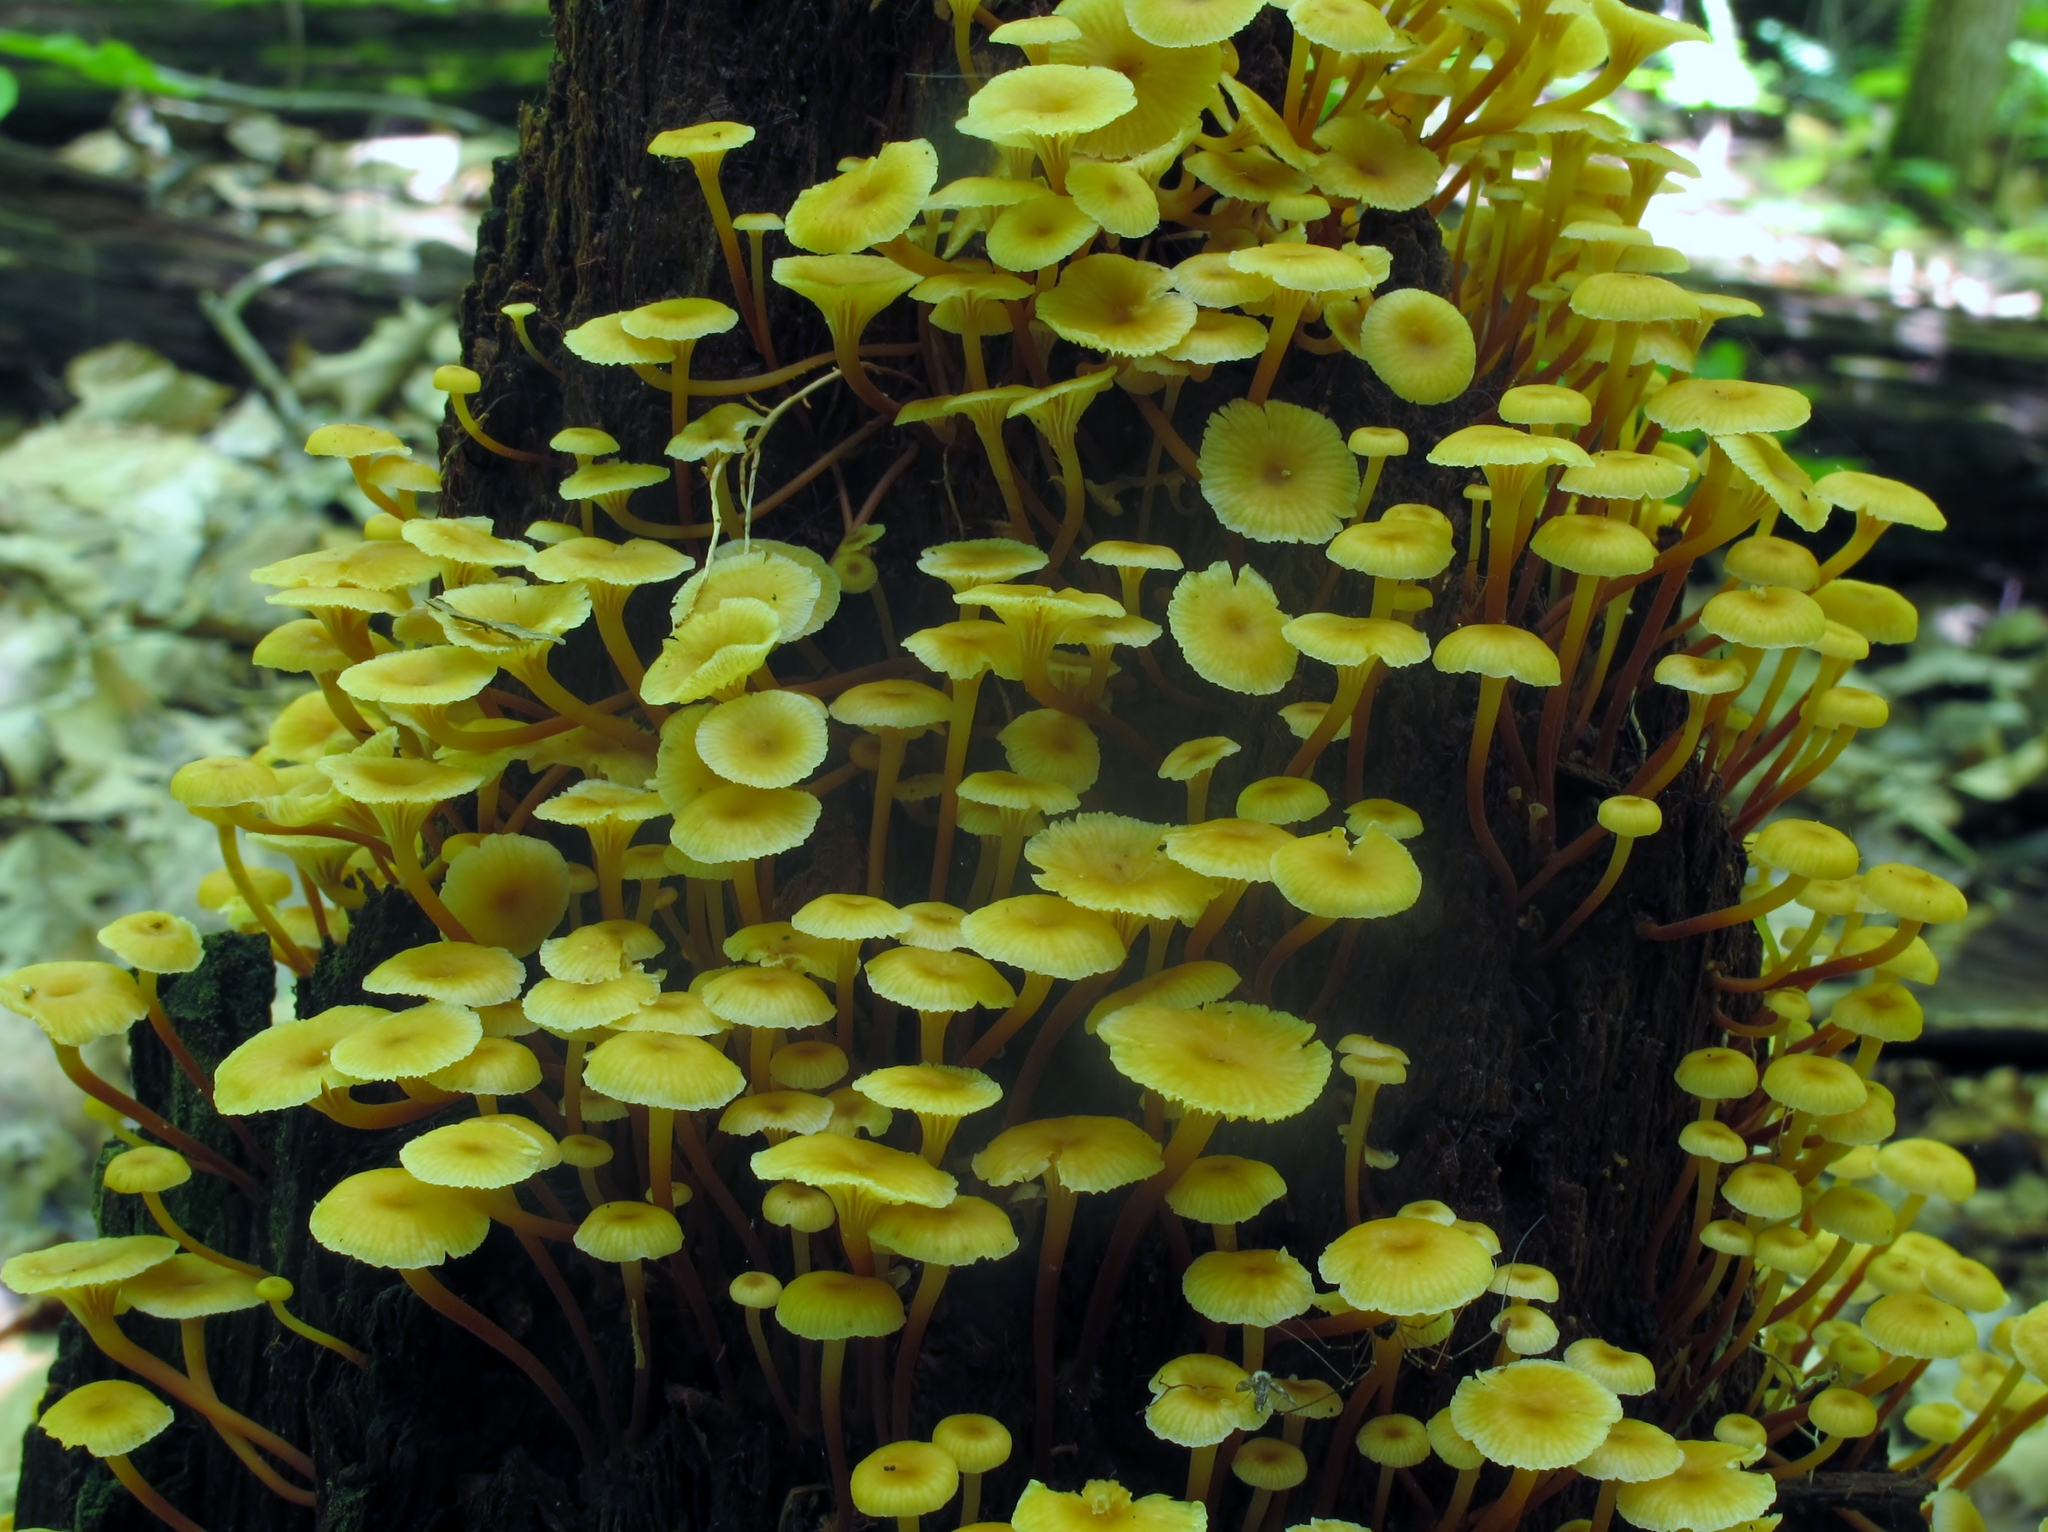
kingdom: Fungi
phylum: Basidiomycota
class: Agaricomycetes
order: Agaricales
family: Mycenaceae
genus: Xeromphalina
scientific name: Xeromphalina kauffmanii
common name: Cross-veined troop mushroom
